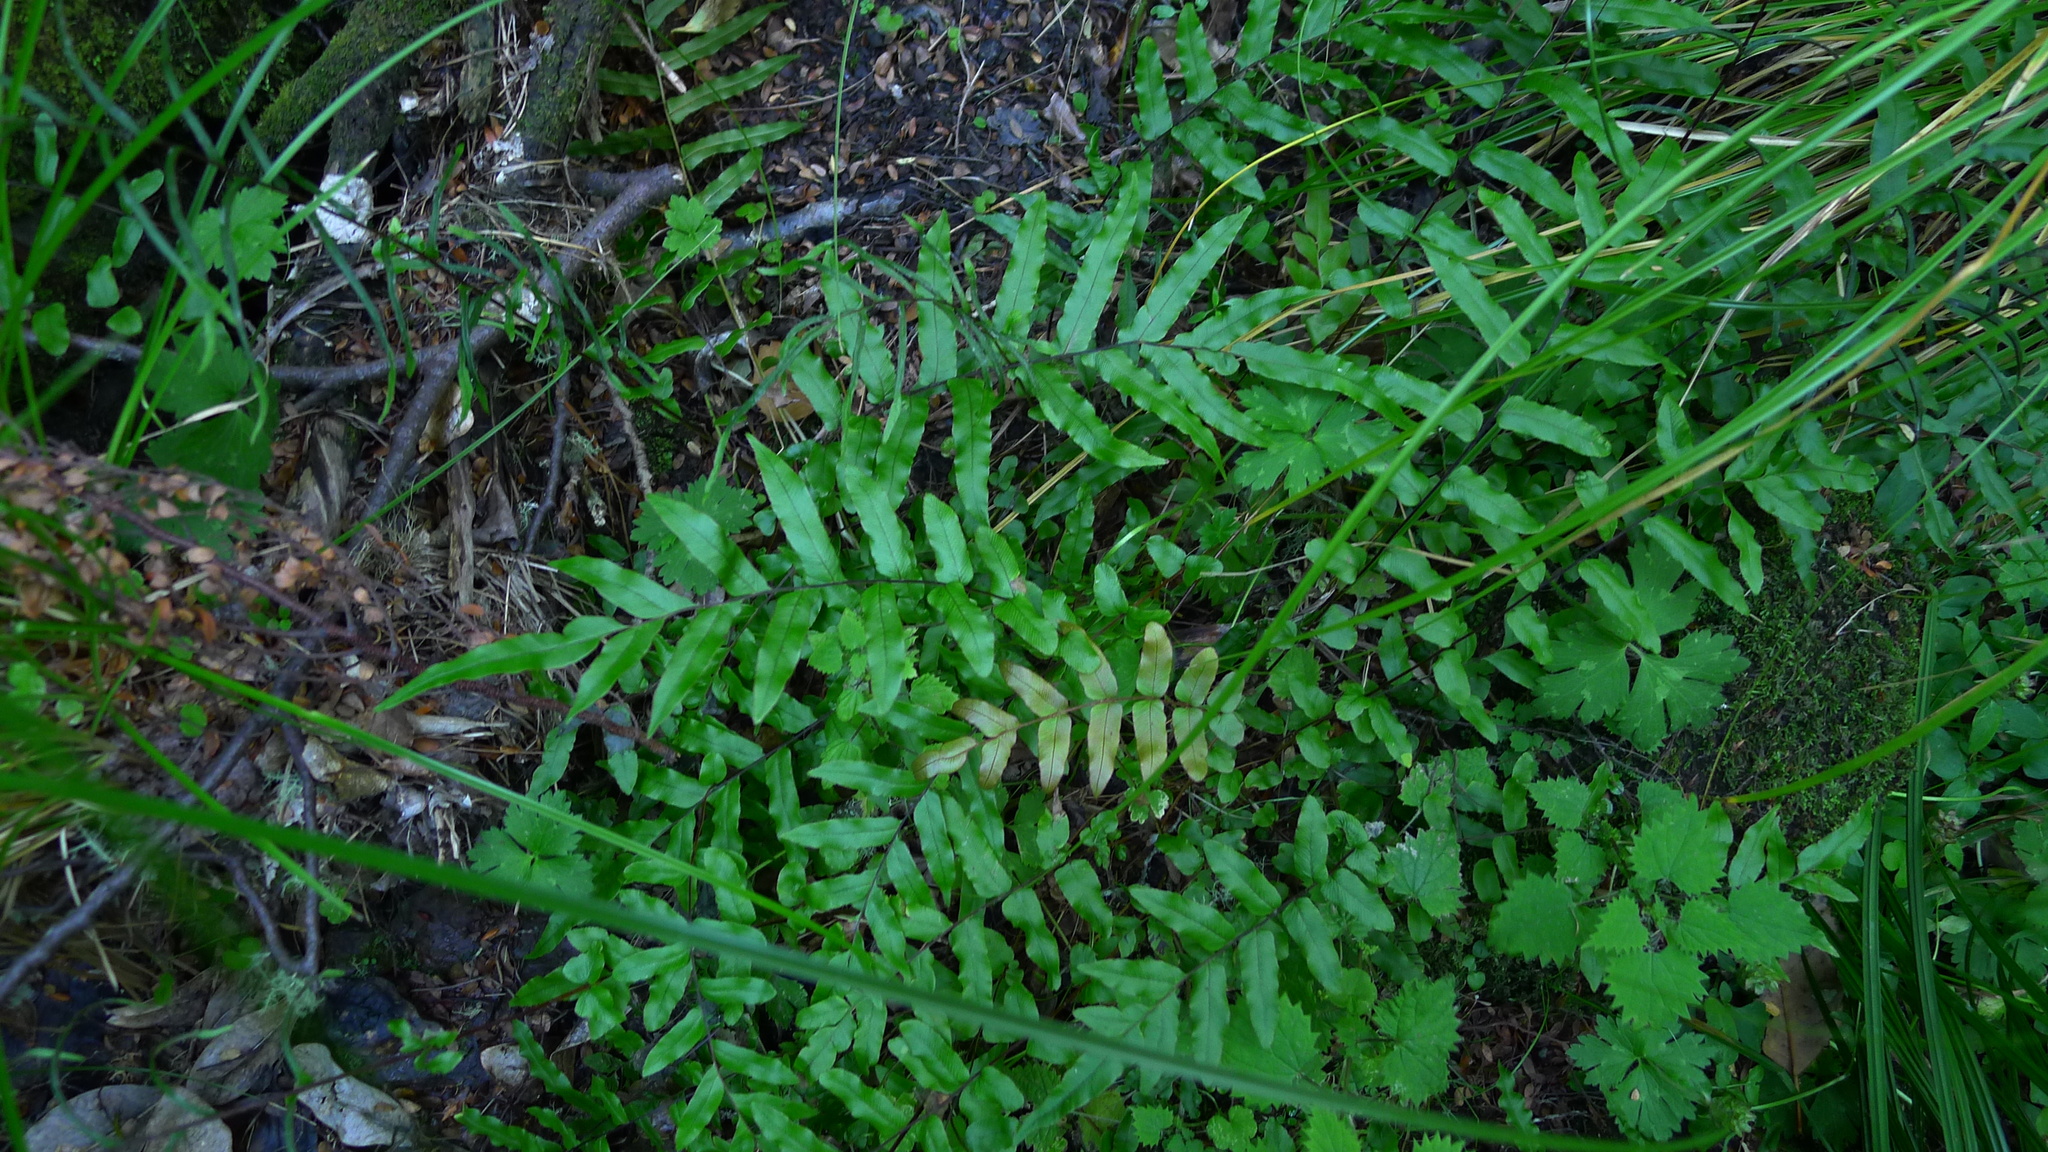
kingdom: Plantae
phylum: Tracheophyta
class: Polypodiopsida
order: Polypodiales
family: Blechnaceae
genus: Parablechnum
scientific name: Parablechnum minus
